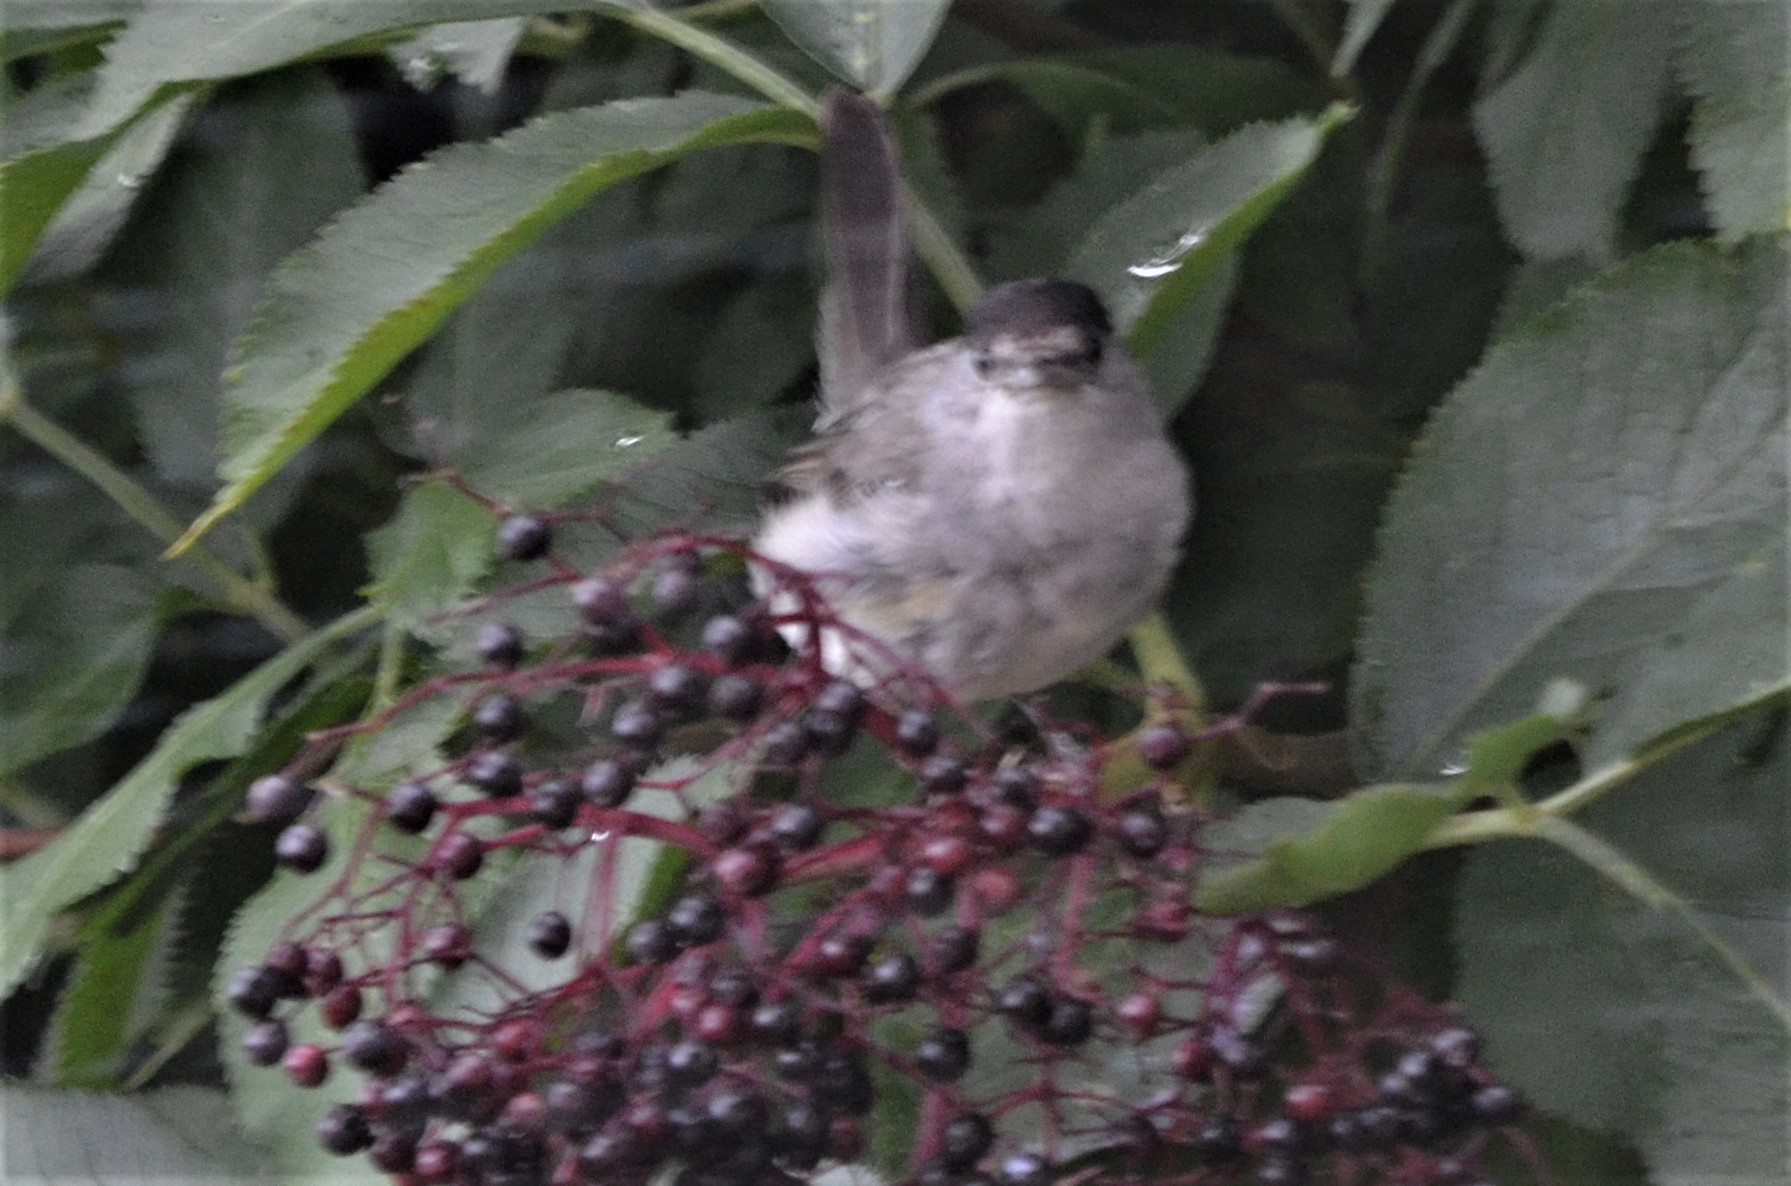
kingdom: Animalia
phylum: Chordata
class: Aves
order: Passeriformes
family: Sylviidae
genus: Sylvia
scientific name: Sylvia atricapilla
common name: Eurasian blackcap
